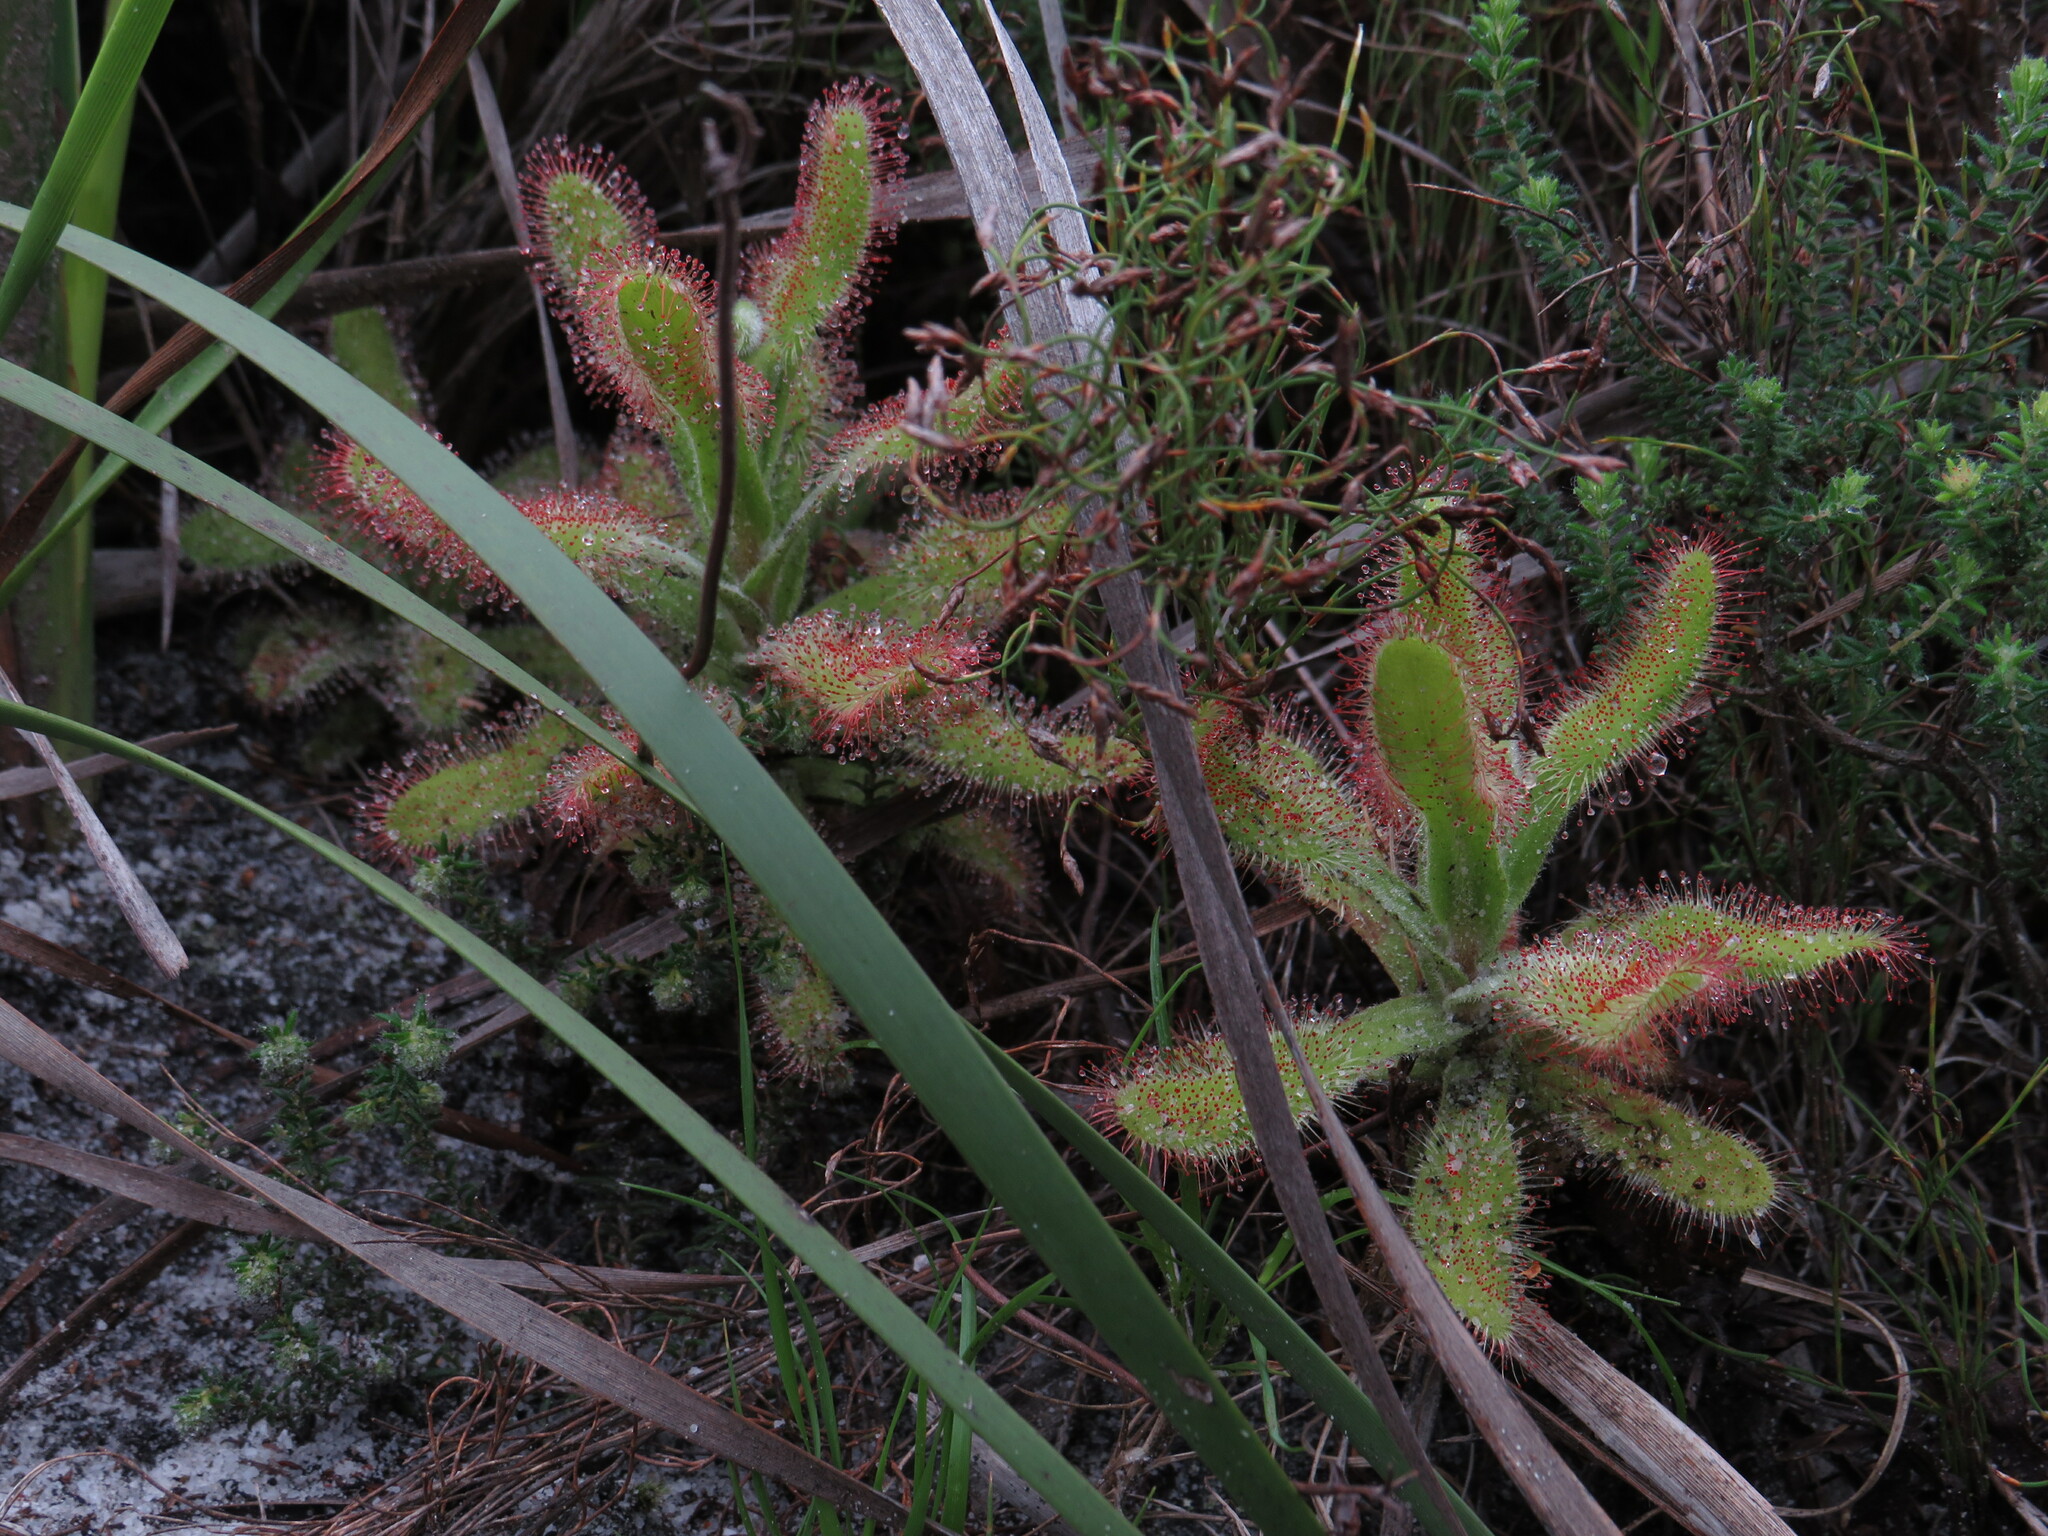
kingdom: Plantae
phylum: Tracheophyta
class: Magnoliopsida
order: Caryophyllales
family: Droseraceae
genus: Drosera
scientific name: Drosera hilaris
